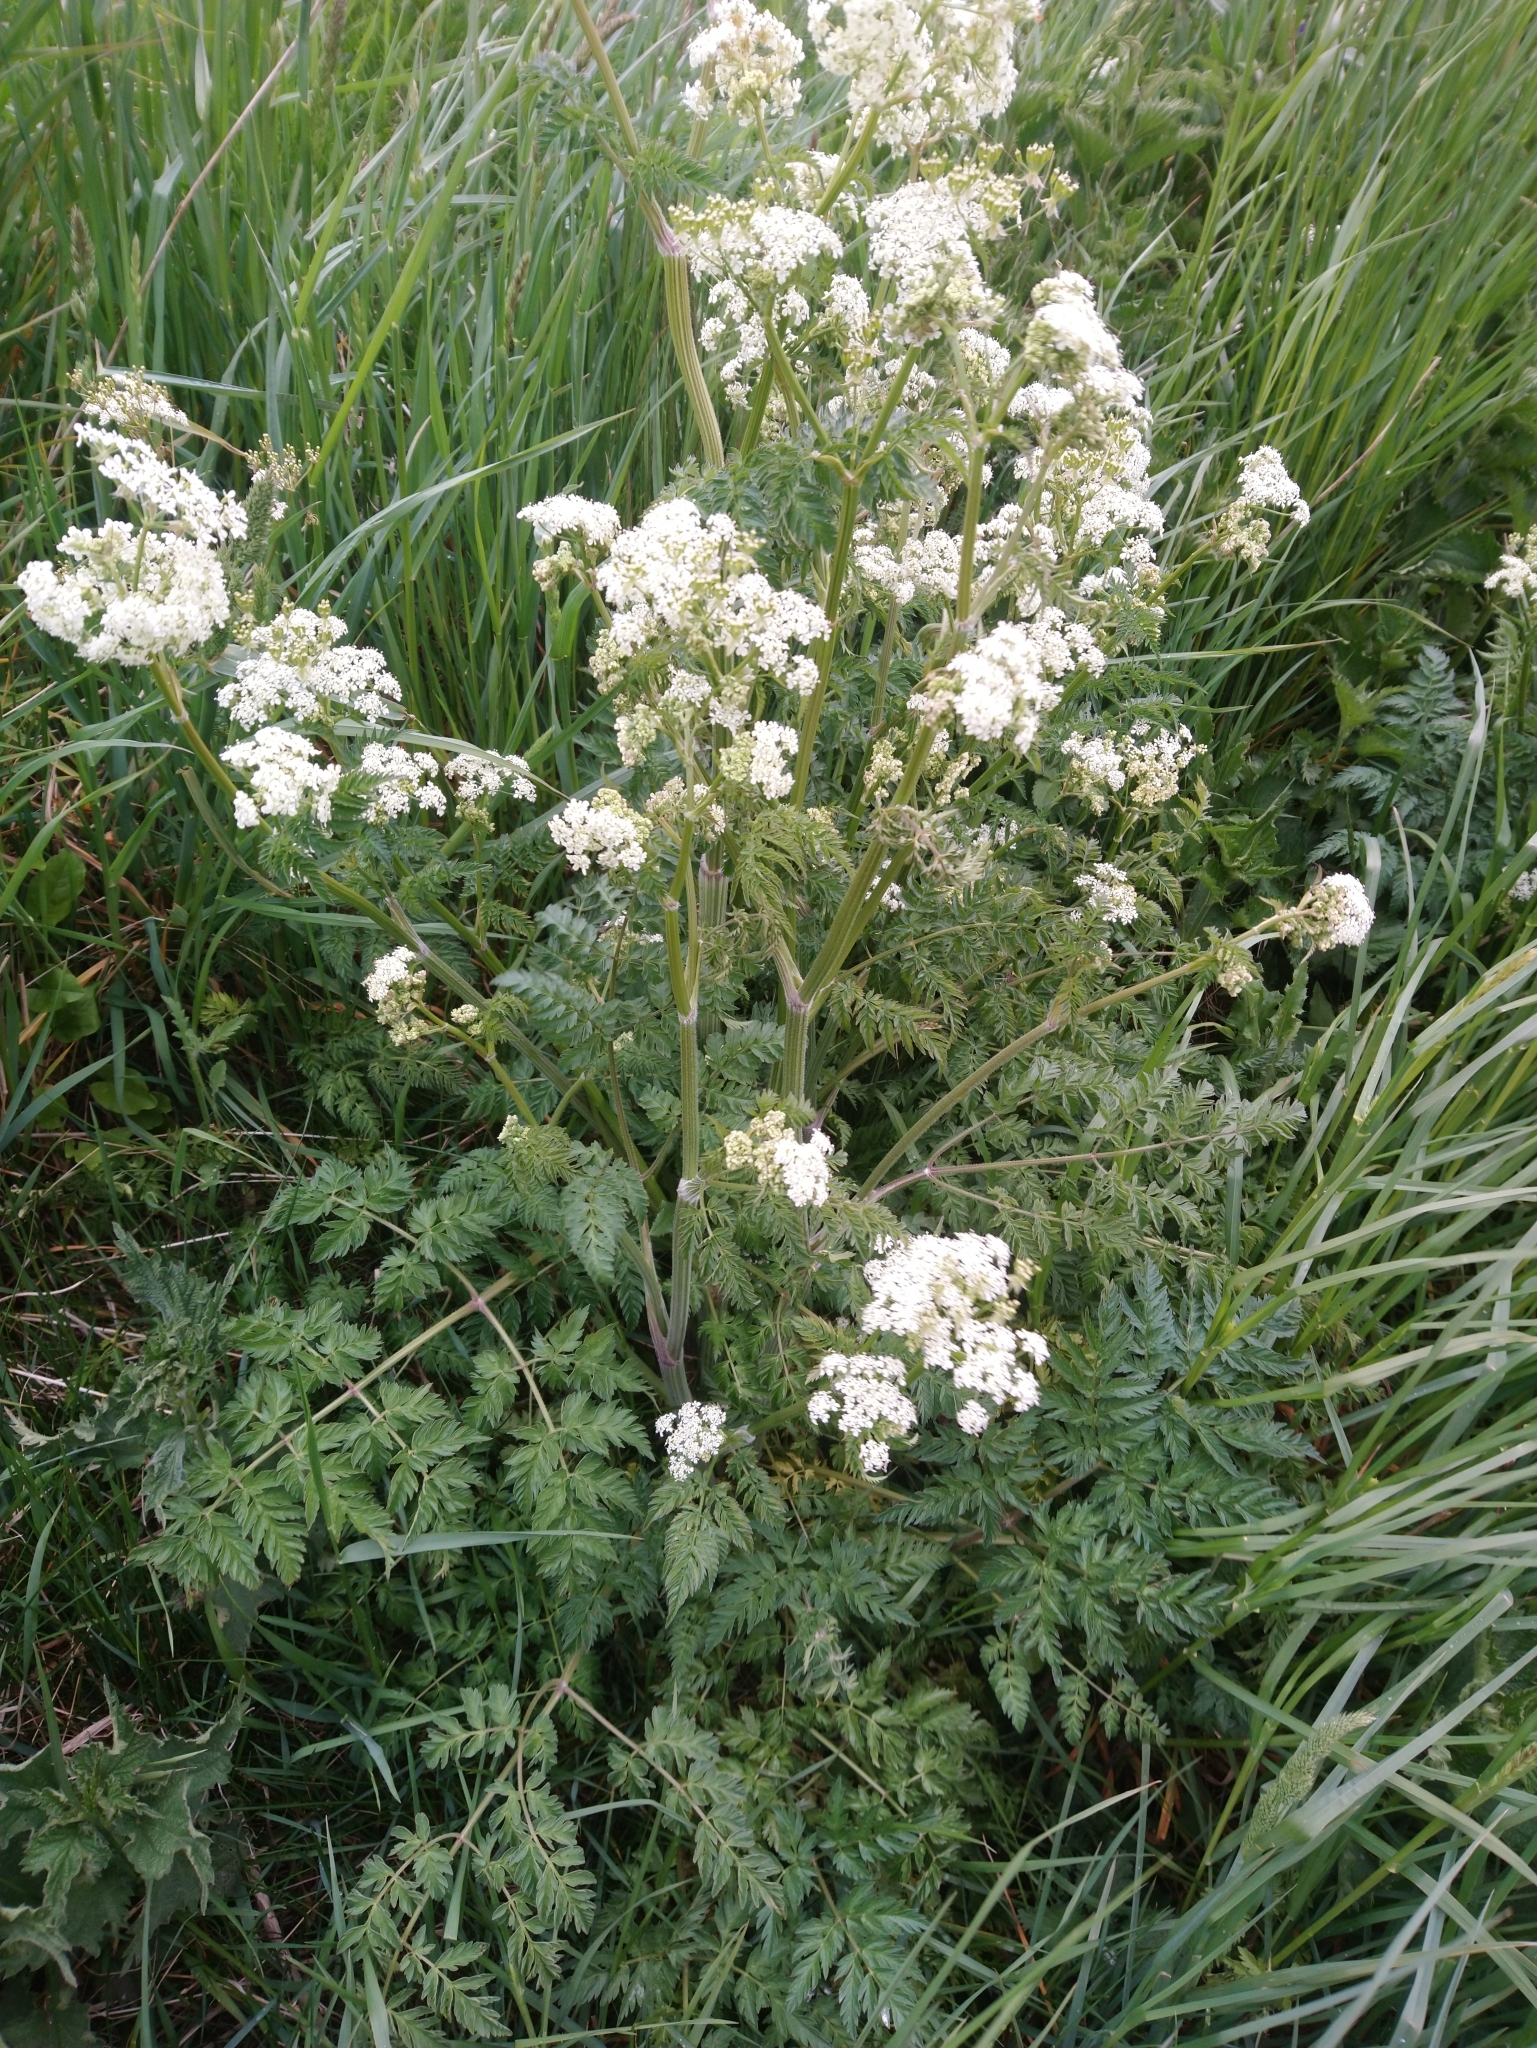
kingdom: Plantae
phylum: Tracheophyta
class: Magnoliopsida
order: Apiales
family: Apiaceae
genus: Anthriscus
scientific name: Anthriscus sylvestris
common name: Cow parsley
